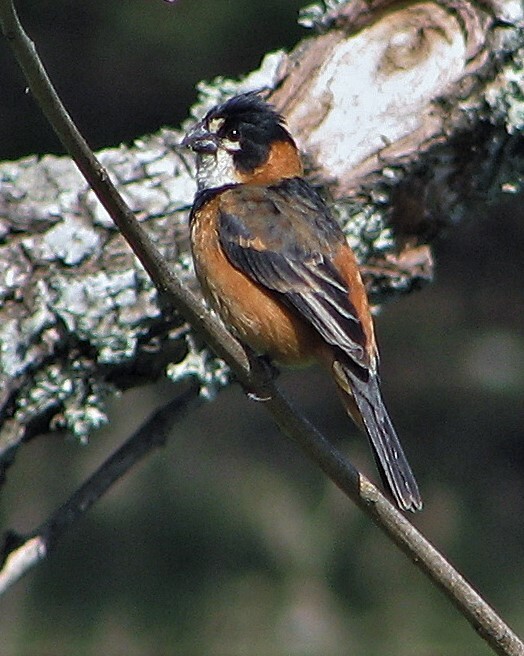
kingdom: Animalia
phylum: Chordata
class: Aves
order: Passeriformes
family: Thraupidae
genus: Sporophila
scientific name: Sporophila collaris
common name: Rusty-collared seedeater
